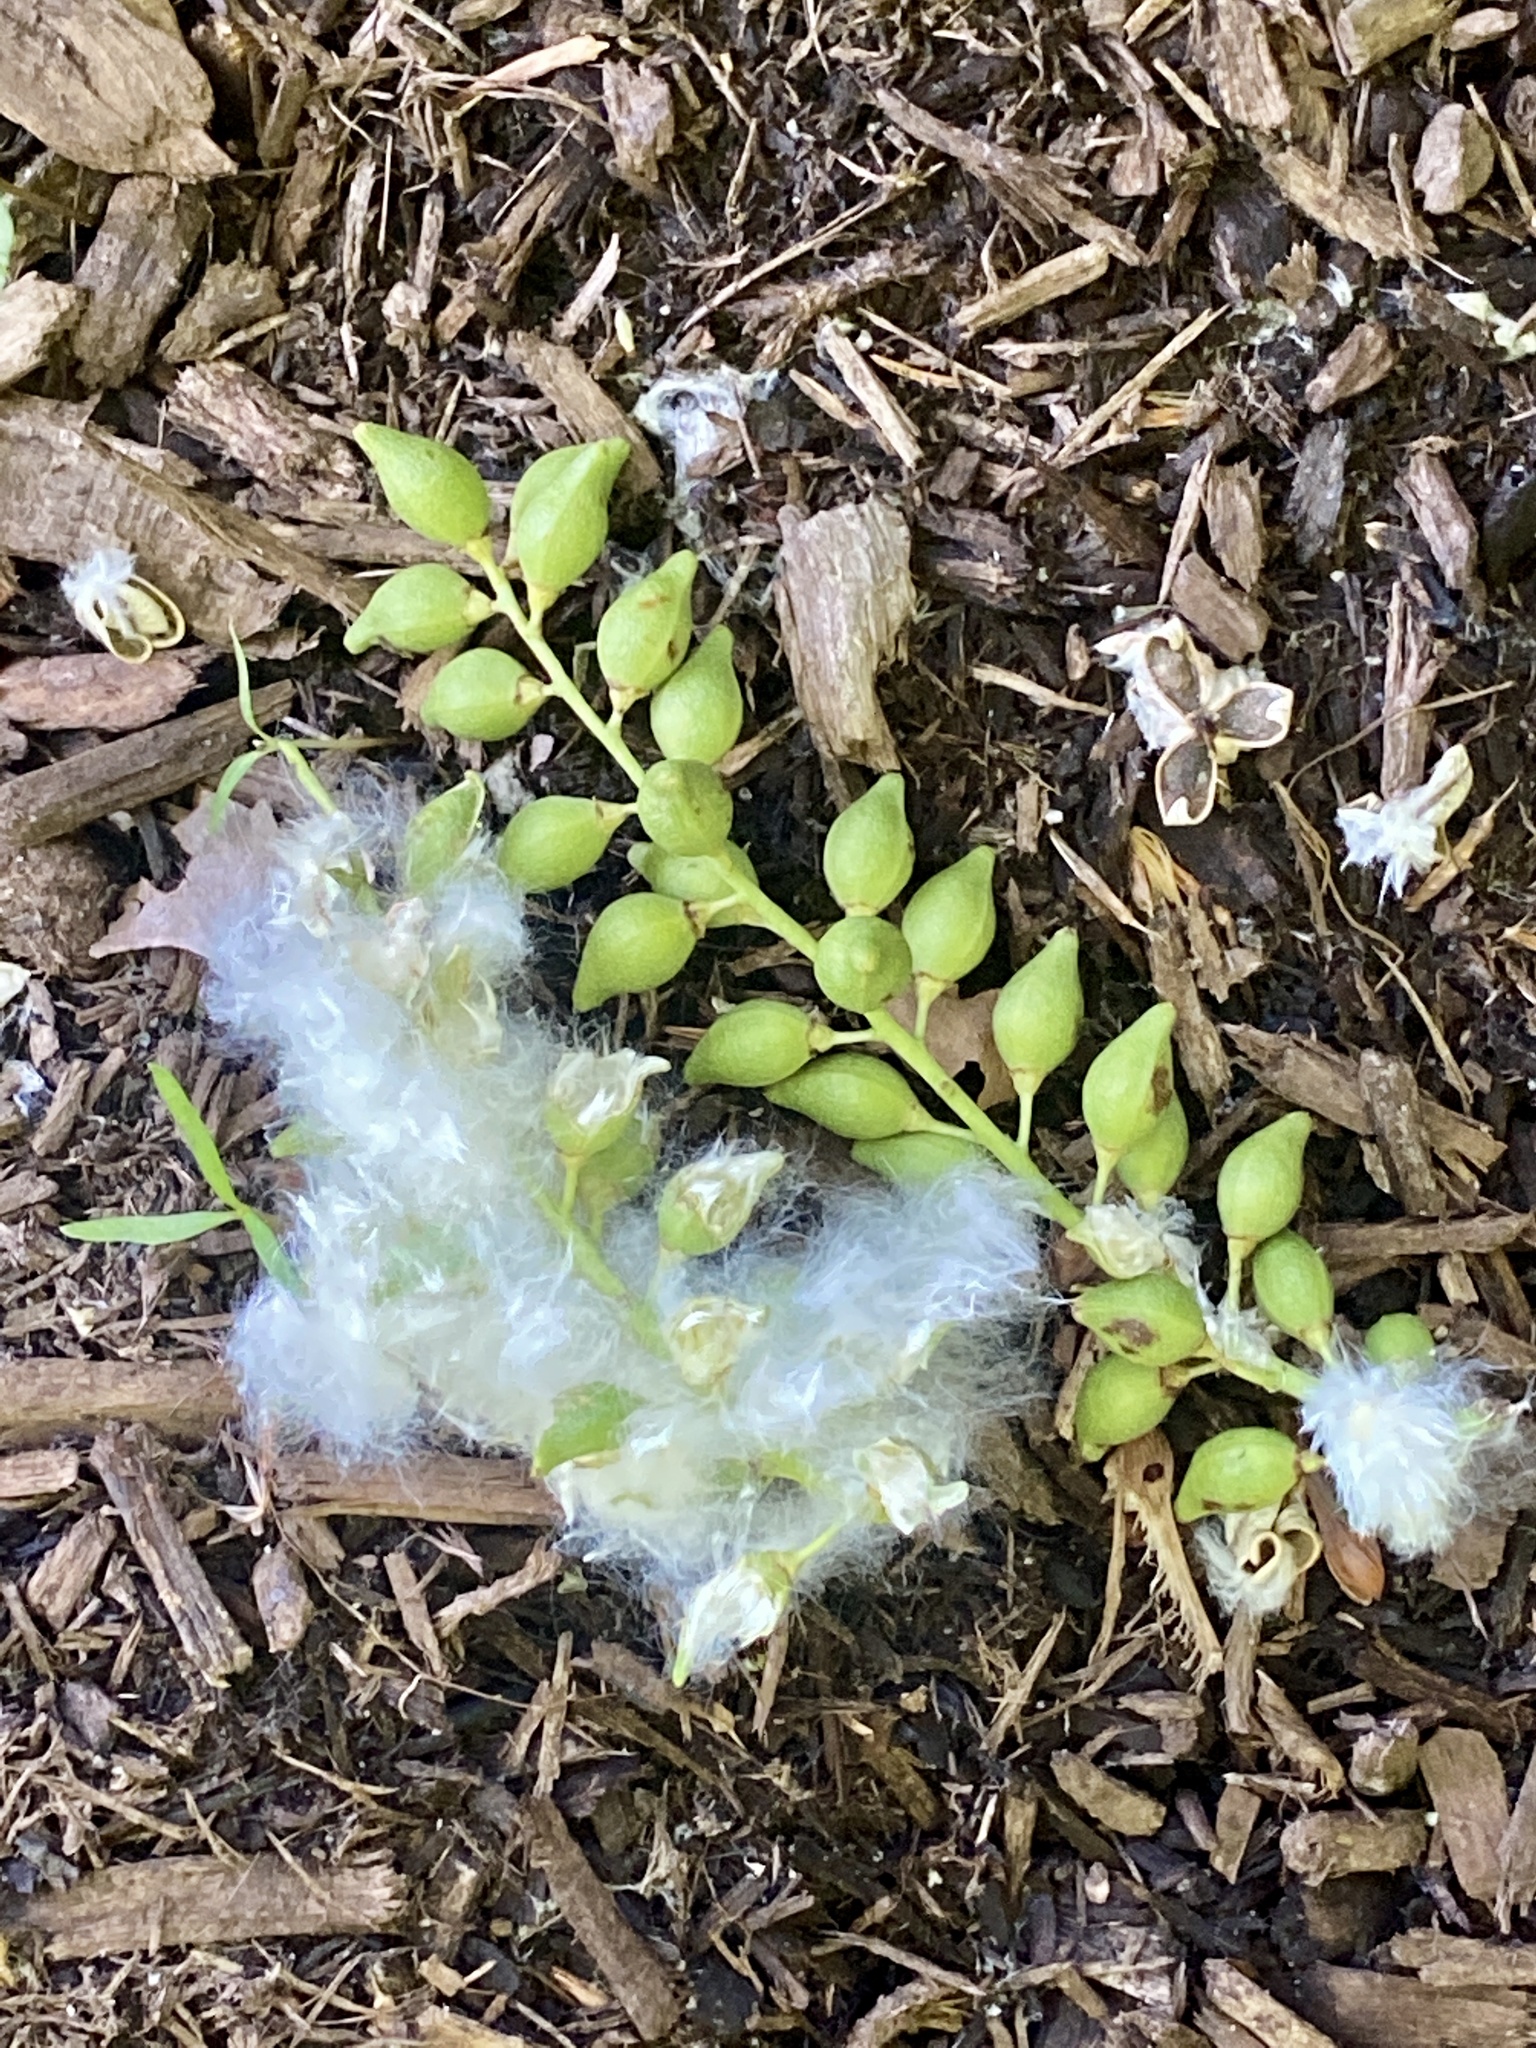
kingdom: Plantae
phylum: Tracheophyta
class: Magnoliopsida
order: Malpighiales
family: Salicaceae
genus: Populus
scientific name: Populus deltoides
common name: Eastern cottonwood
